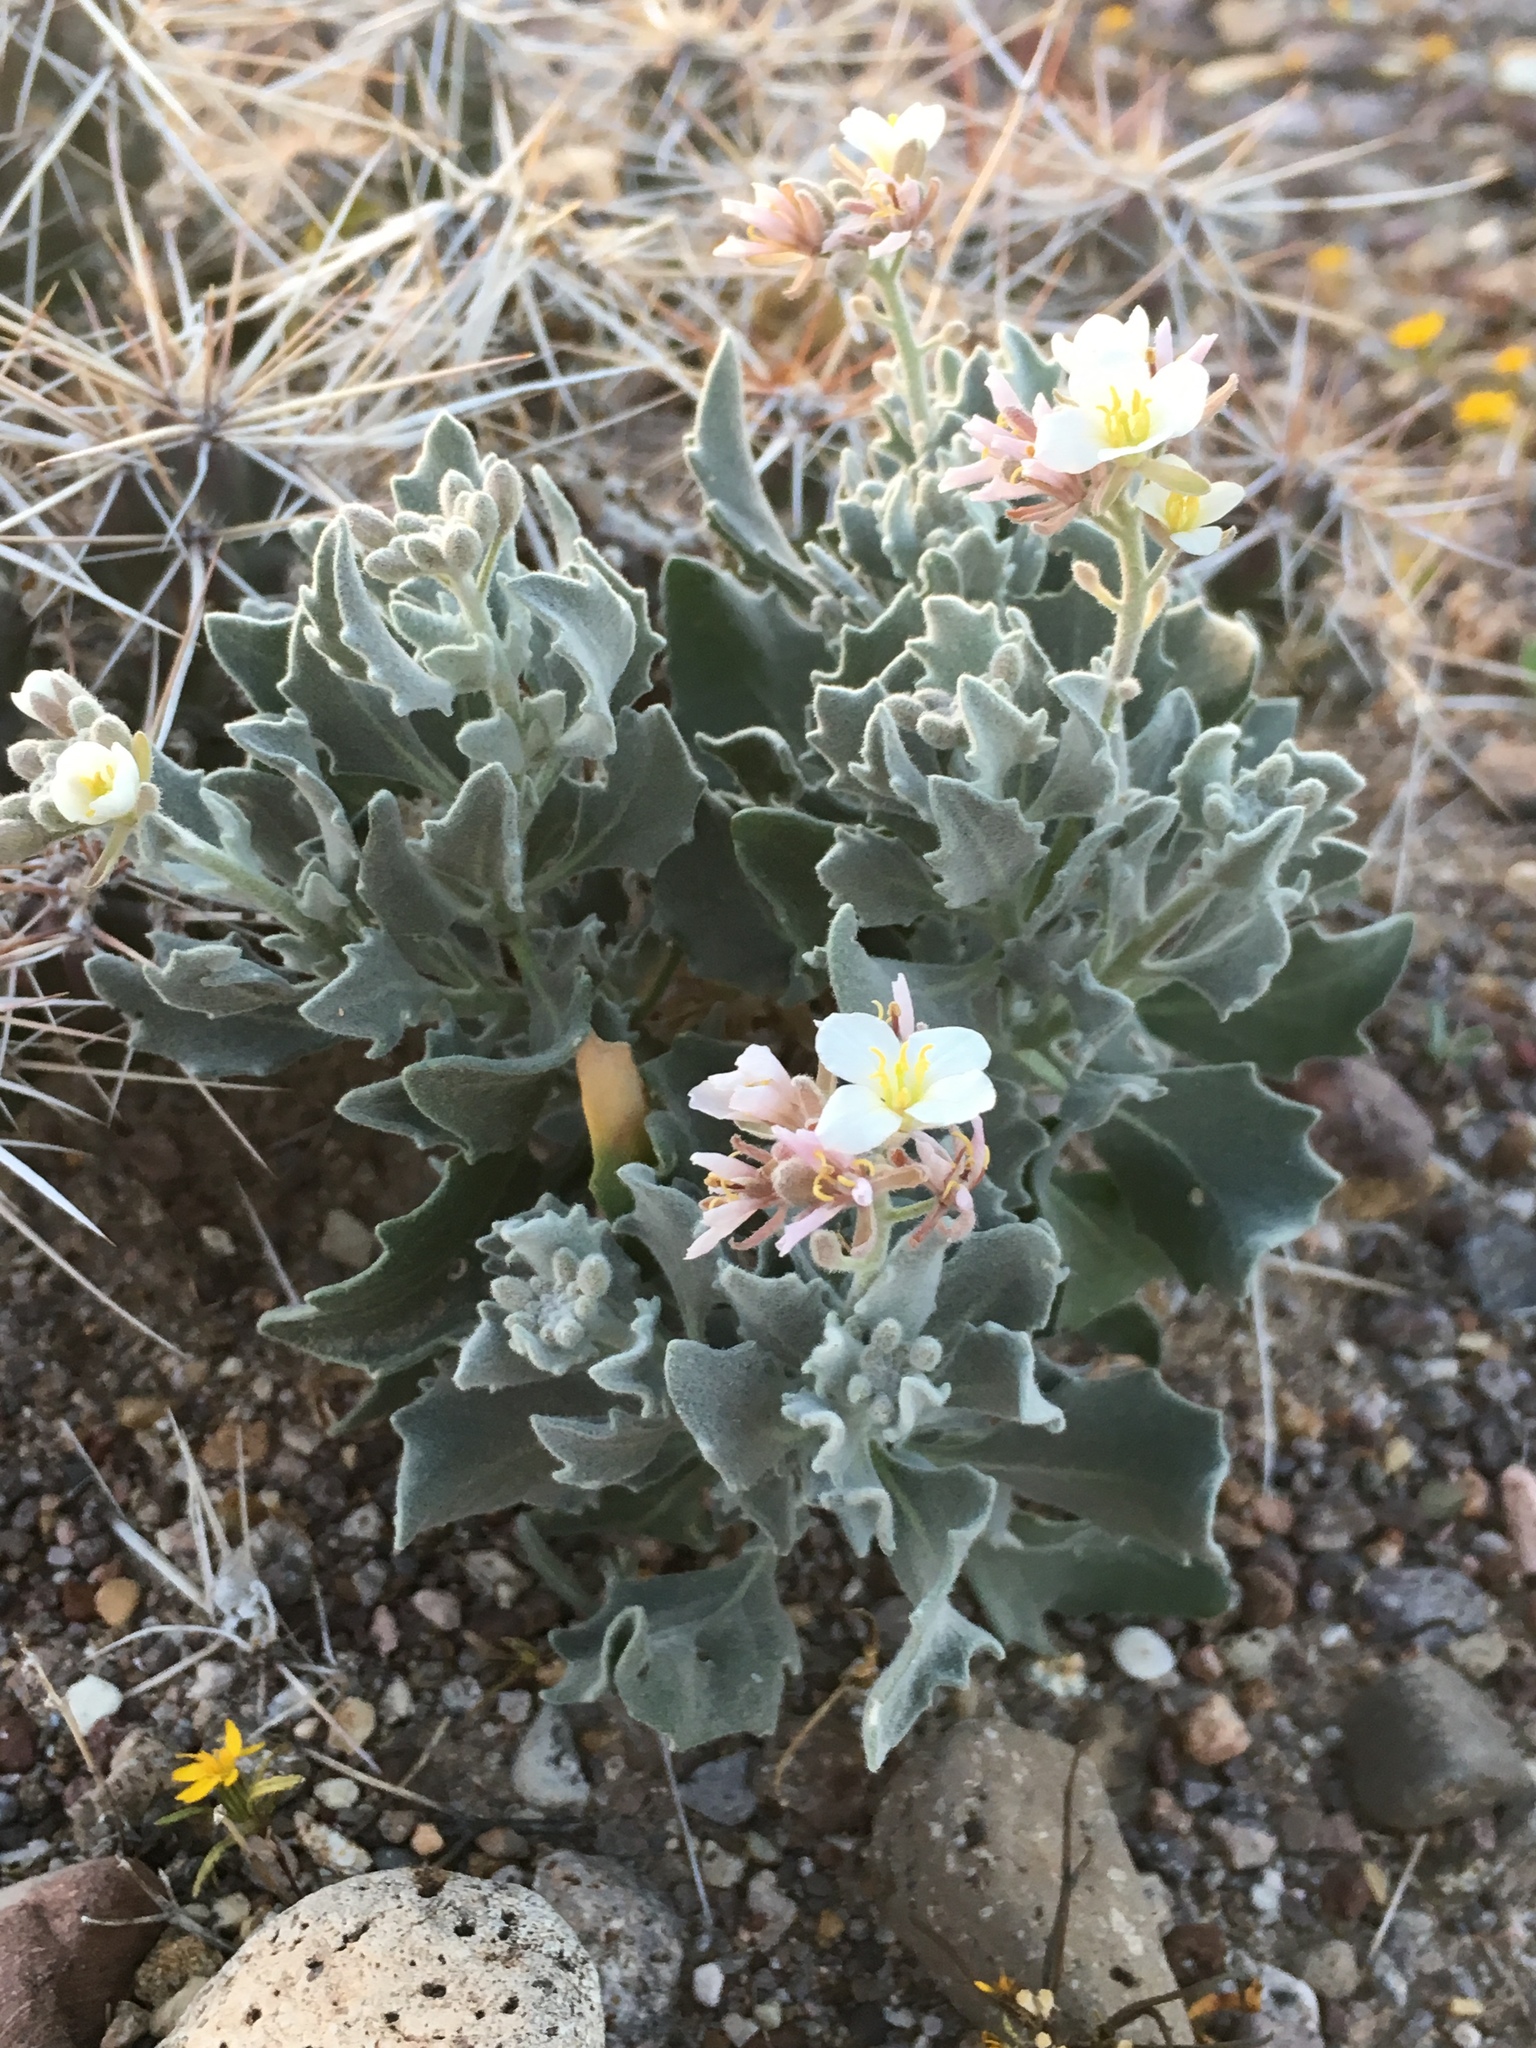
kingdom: Plantae
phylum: Tracheophyta
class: Magnoliopsida
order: Brassicales
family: Brassicaceae
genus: Nerisyrenia
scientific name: Nerisyrenia camporum
